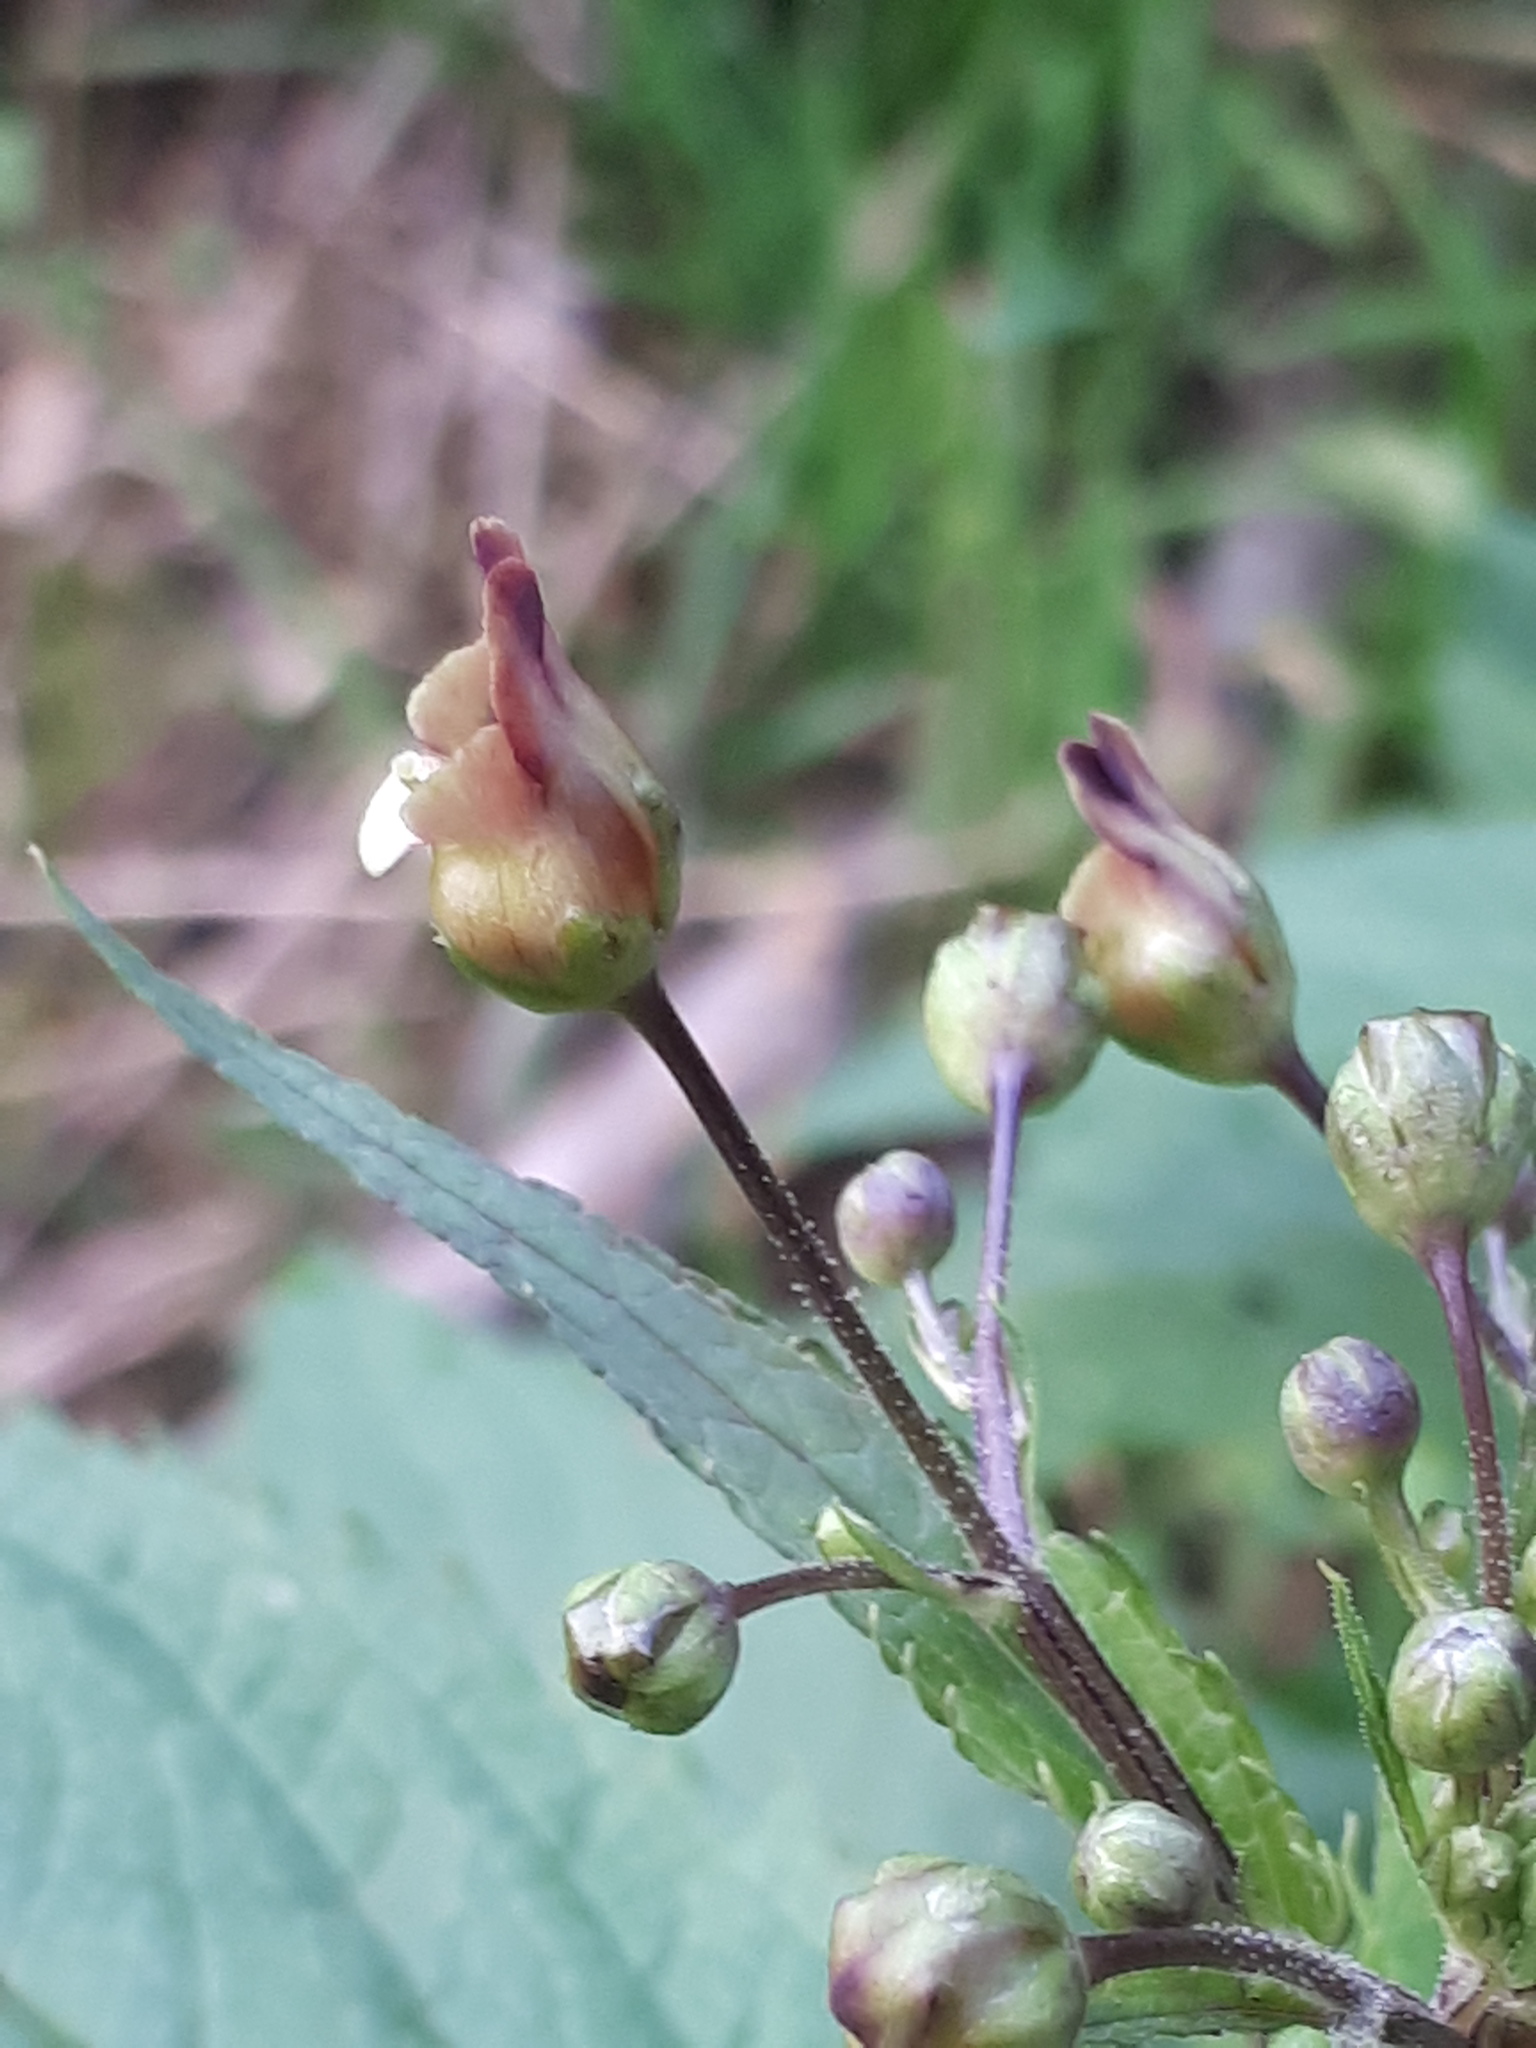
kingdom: Plantae
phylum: Tracheophyta
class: Magnoliopsida
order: Lamiales
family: Scrophulariaceae
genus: Scrophularia
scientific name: Scrophularia nodosa
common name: Common figwort
